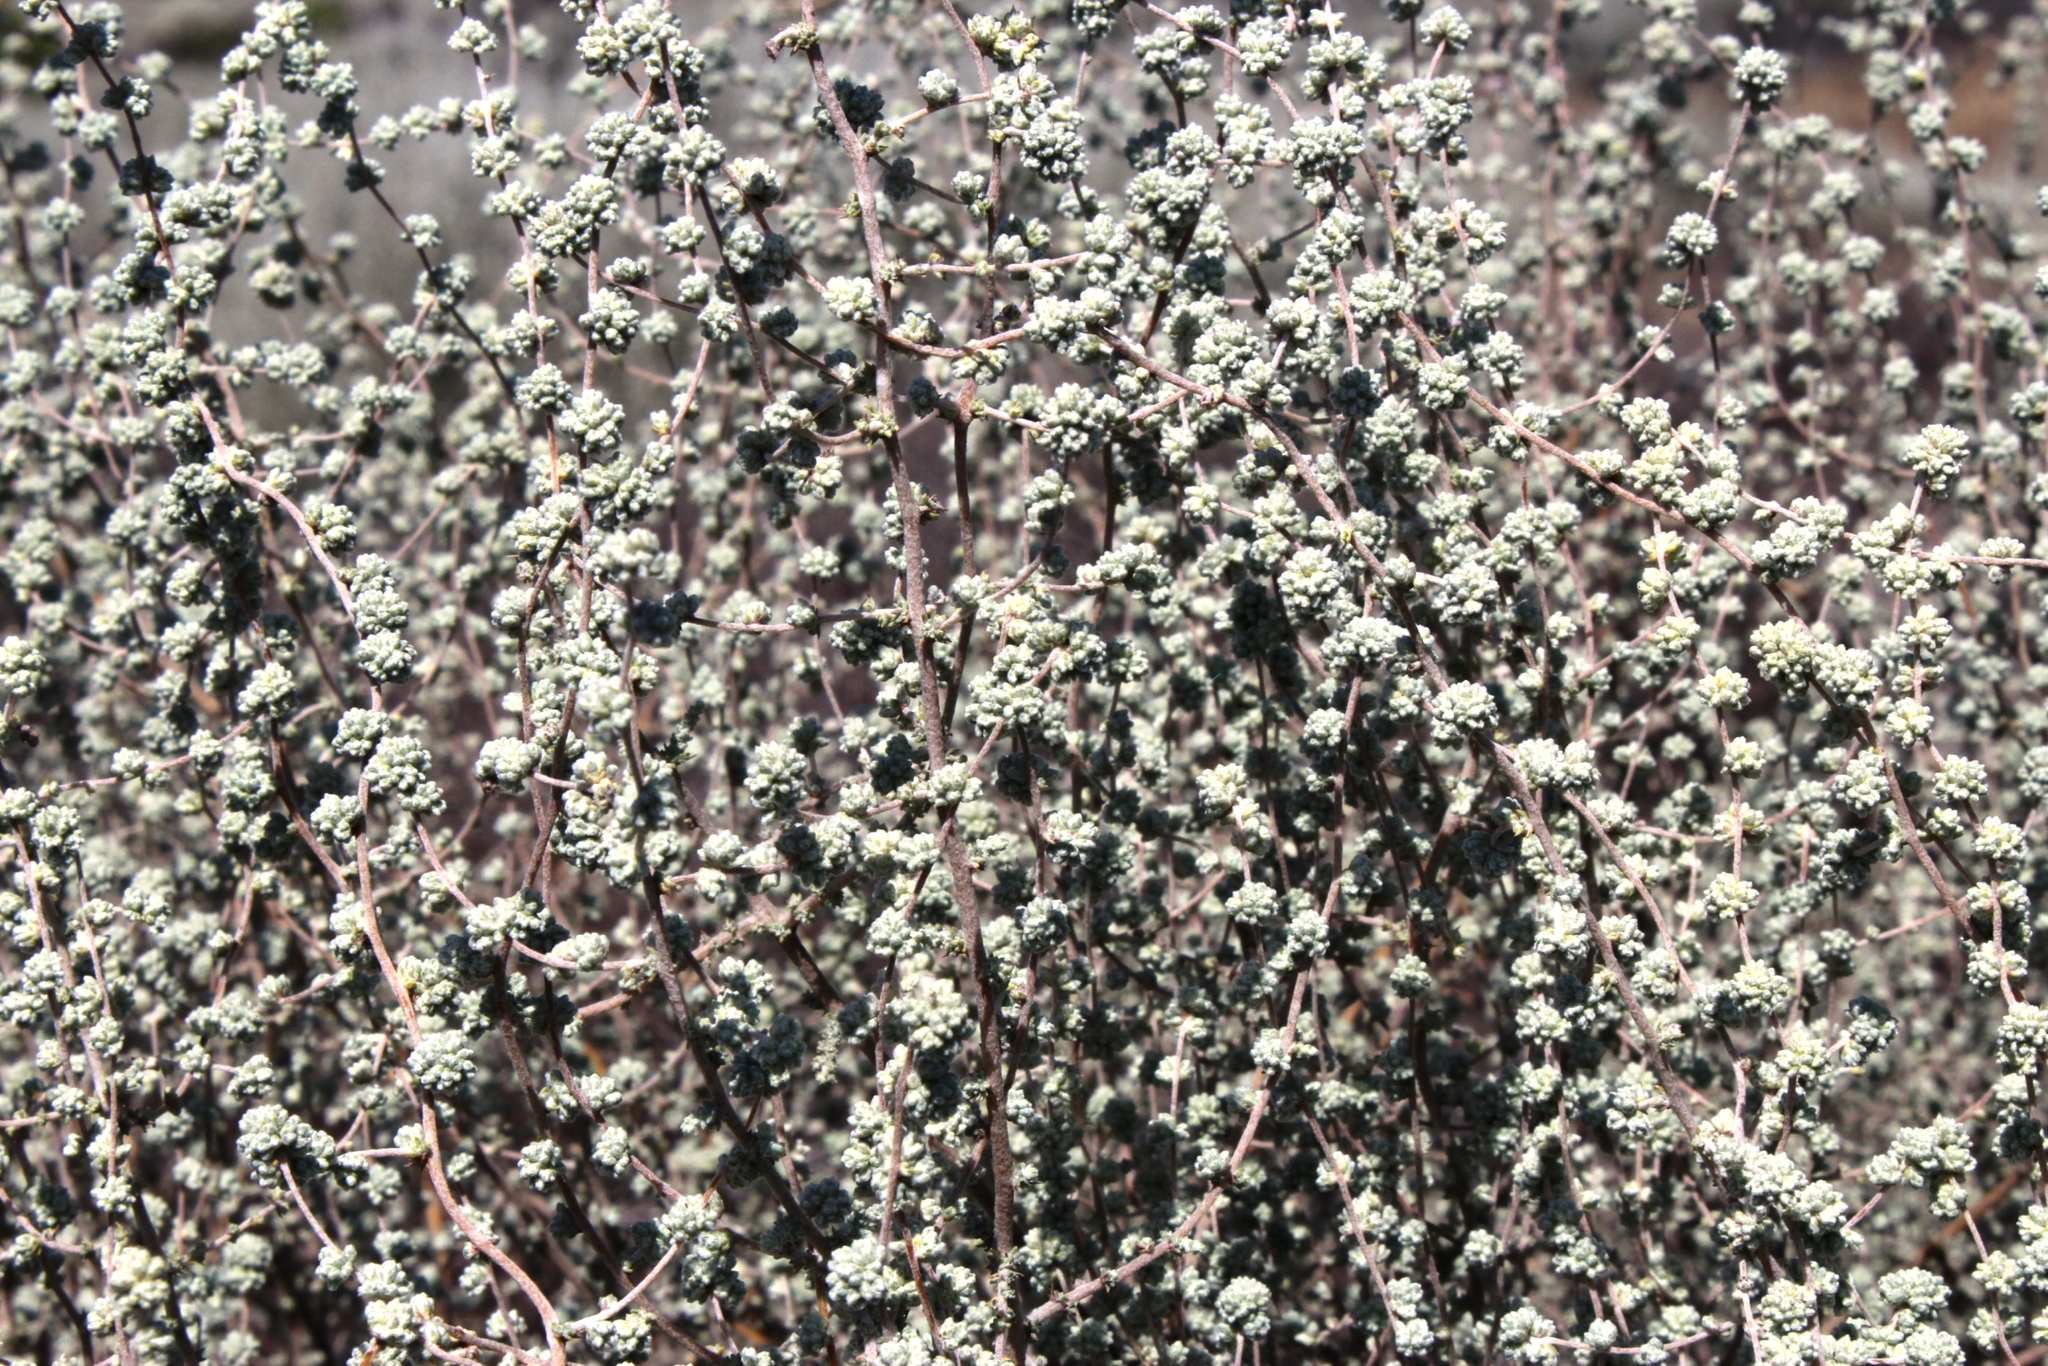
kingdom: Plantae
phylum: Tracheophyta
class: Magnoliopsida
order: Asterales
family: Asteraceae
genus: Seriphium
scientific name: Seriphium plumosum
